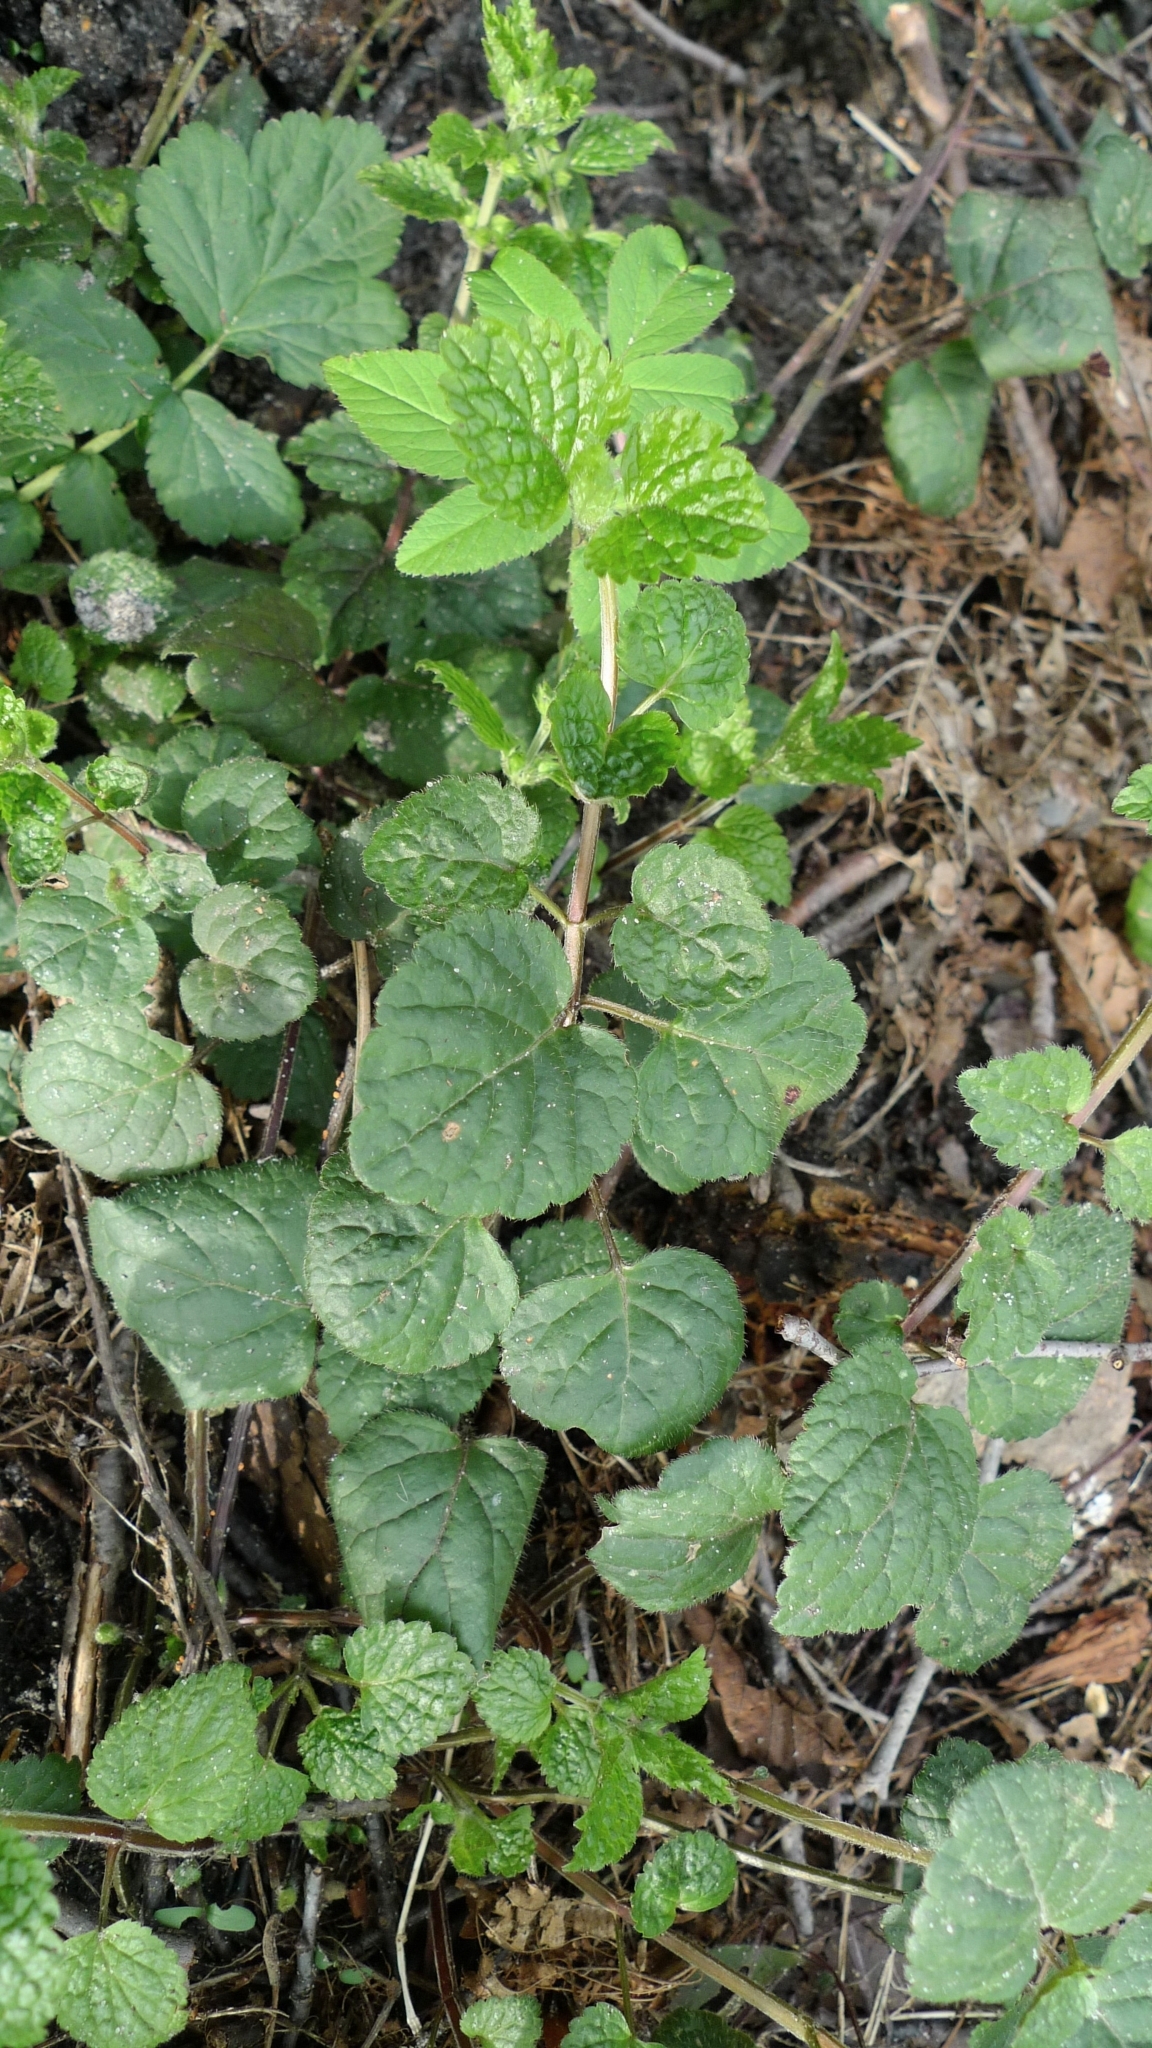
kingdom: Plantae
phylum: Tracheophyta
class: Magnoliopsida
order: Lamiales
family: Lamiaceae
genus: Lamium
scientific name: Lamium galeobdolon
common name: Yellow archangel
